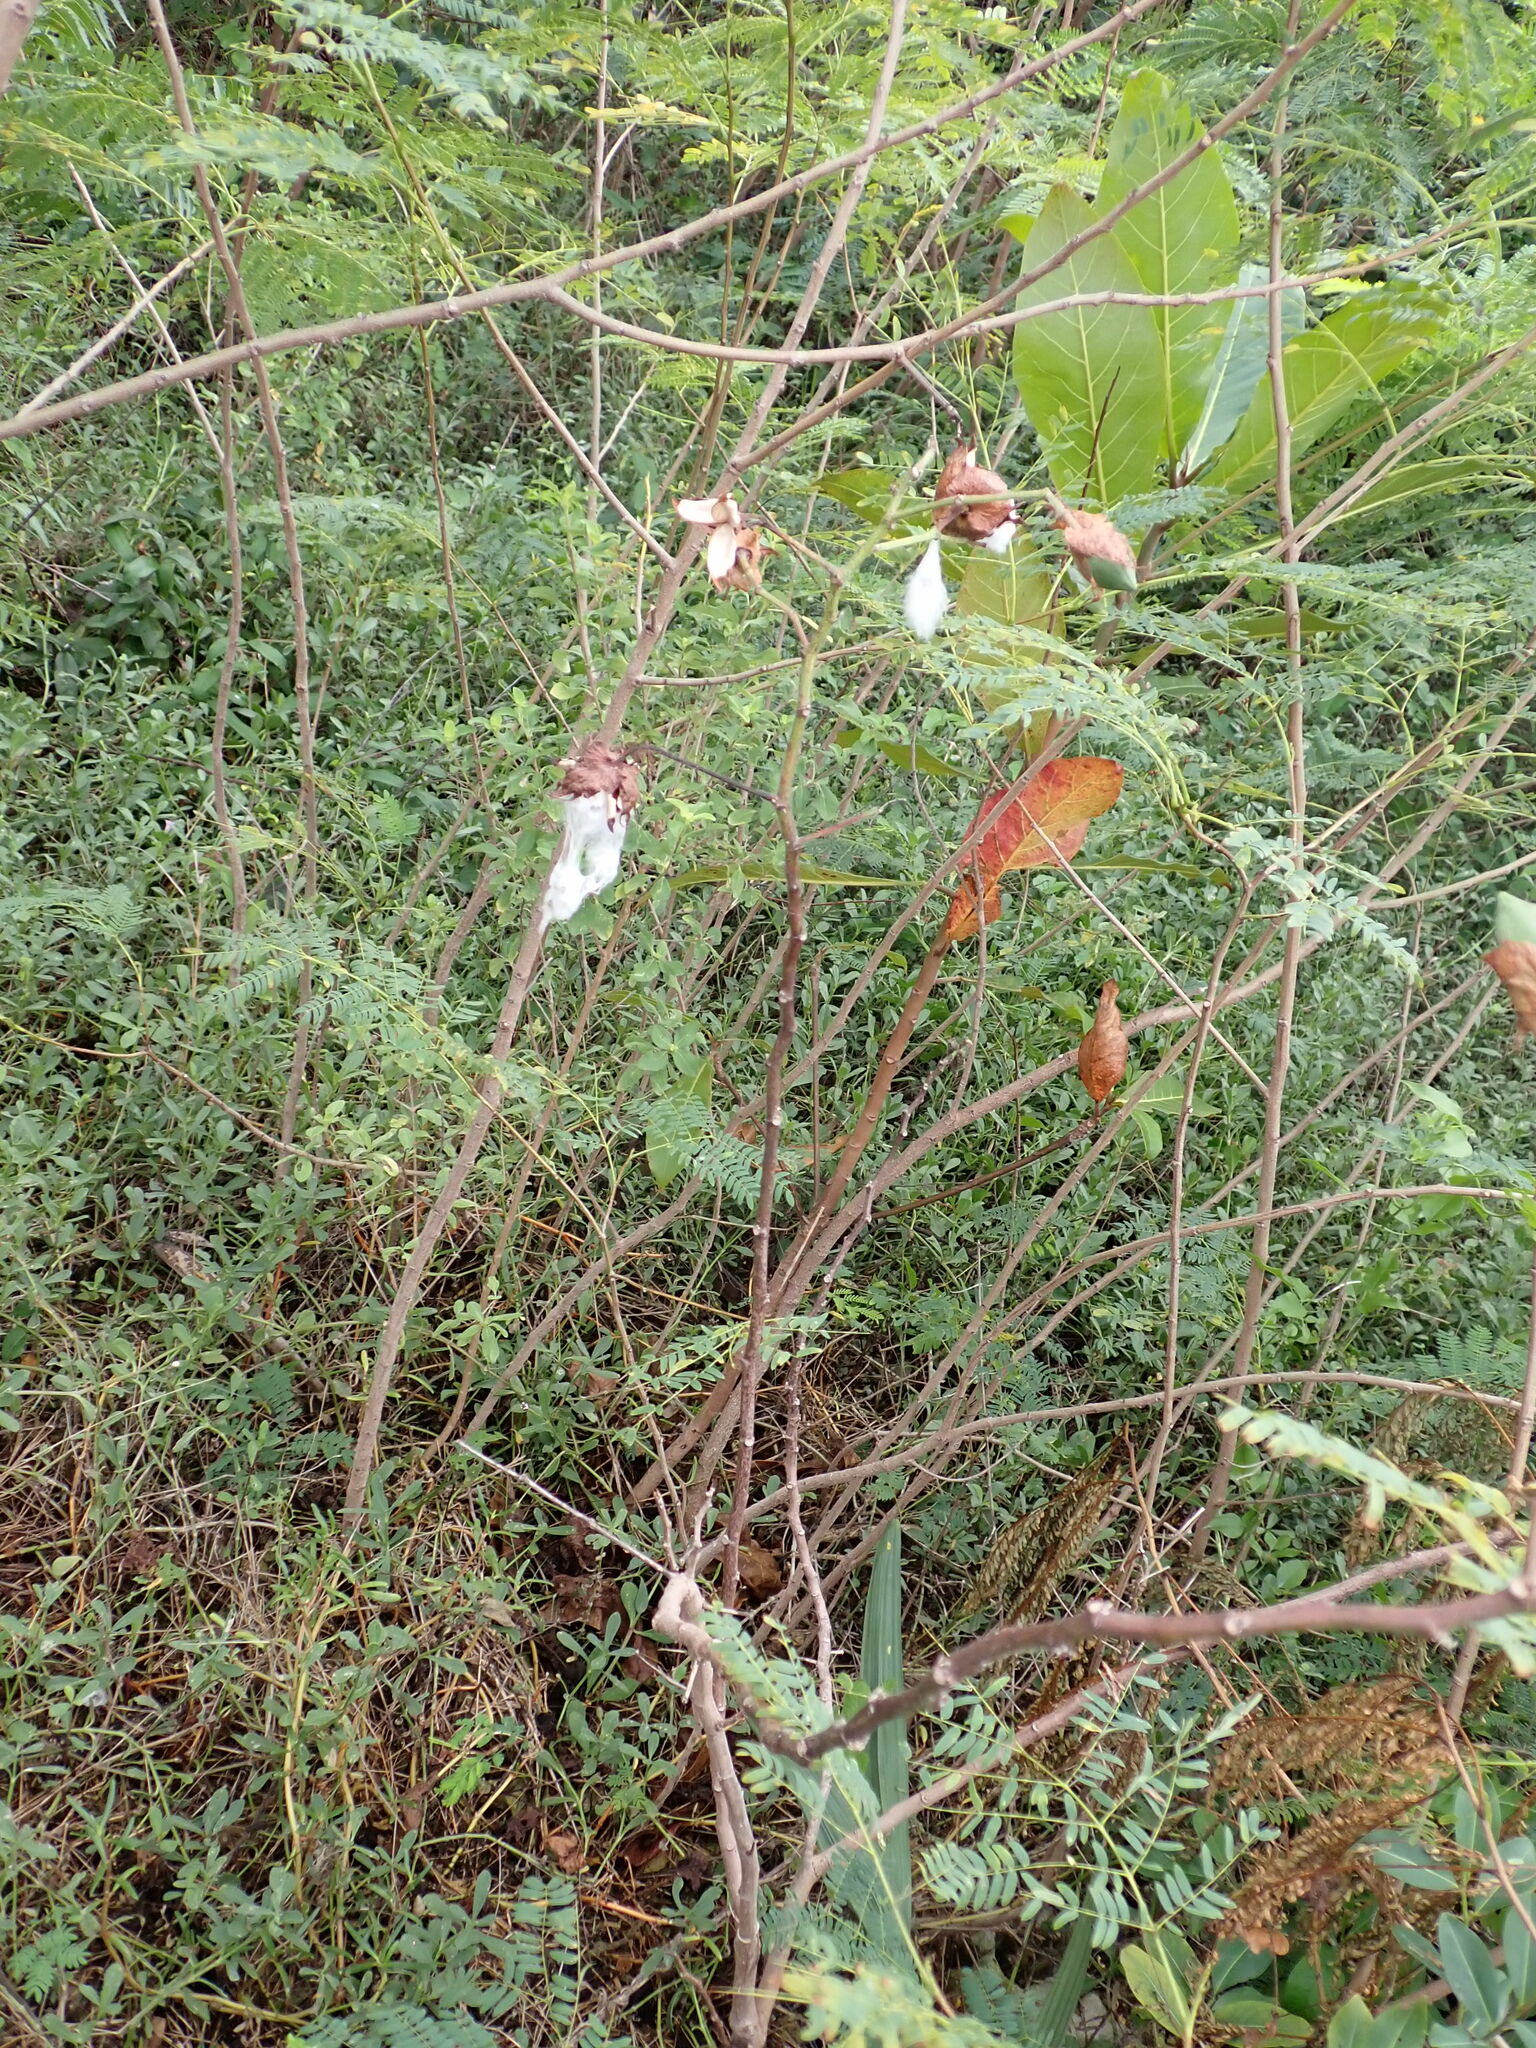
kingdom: Plantae
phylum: Tracheophyta
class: Magnoliopsida
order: Malvales
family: Malvaceae
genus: Gossypium
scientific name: Gossypium hirsutum
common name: Cotton
